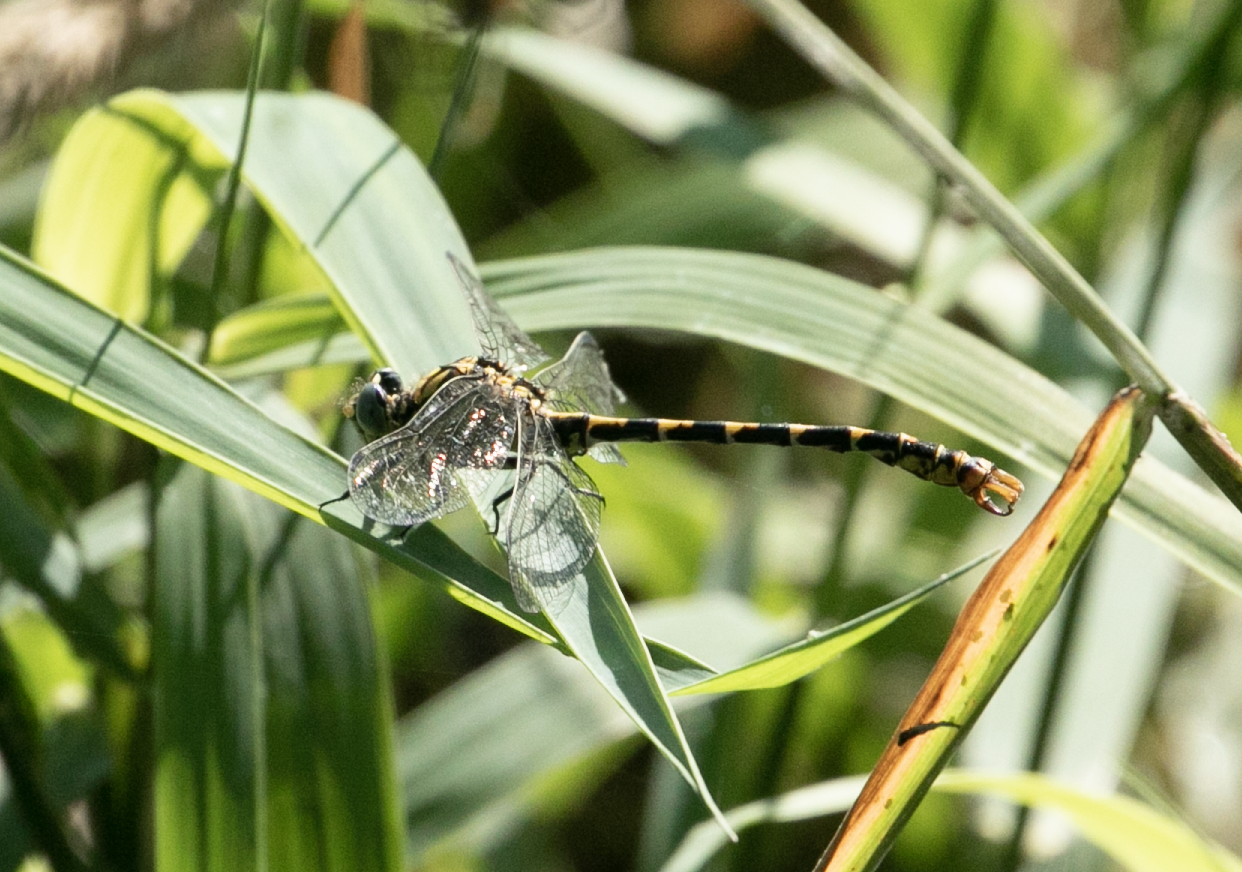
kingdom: Animalia
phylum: Arthropoda
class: Insecta
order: Odonata
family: Gomphidae
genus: Onychogomphus
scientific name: Onychogomphus forcipatus
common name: Small pincertail
